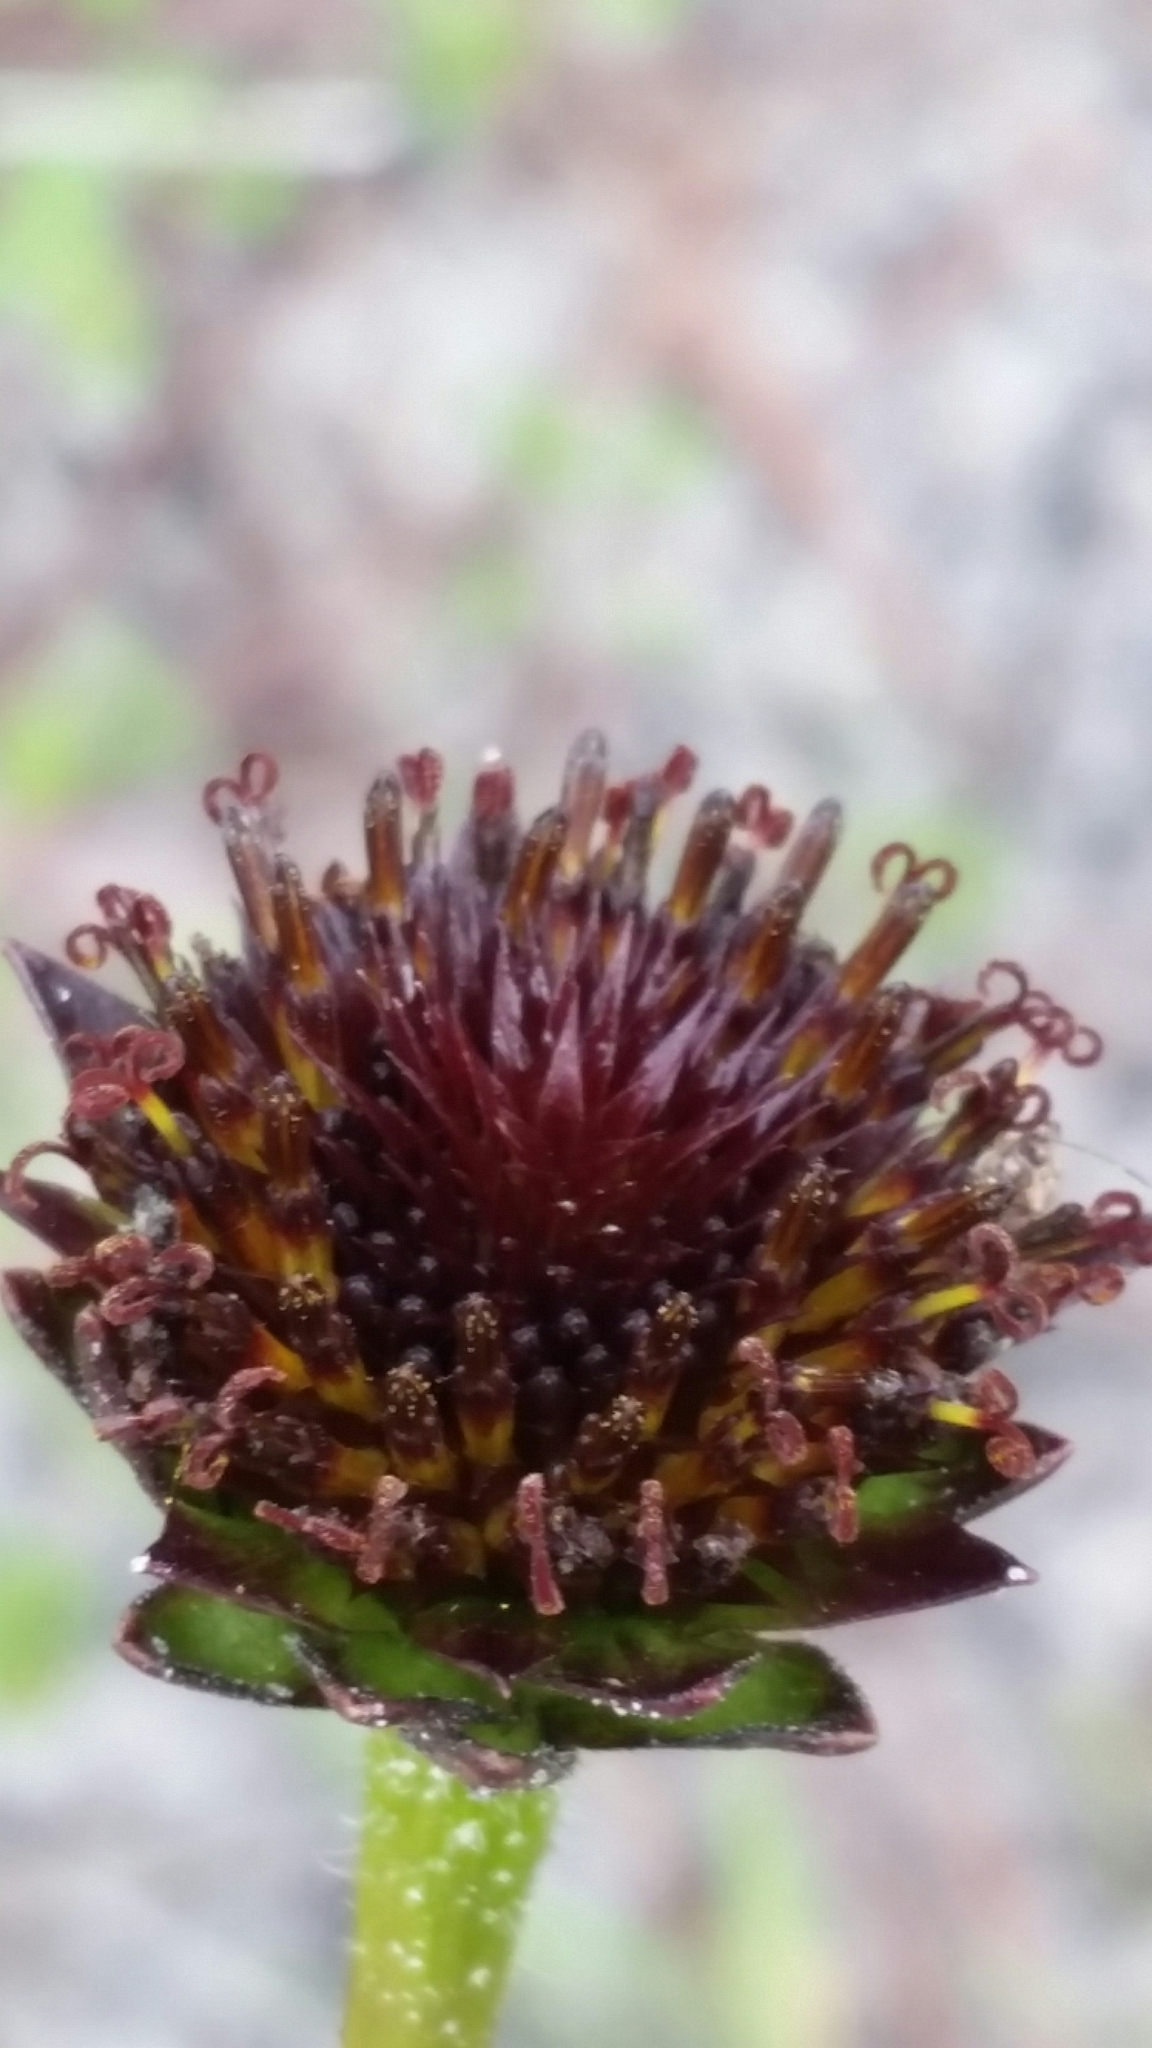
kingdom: Plantae
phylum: Tracheophyta
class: Magnoliopsida
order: Asterales
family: Asteraceae
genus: Helianthus
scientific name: Helianthus radula
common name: Pineland sunflower
